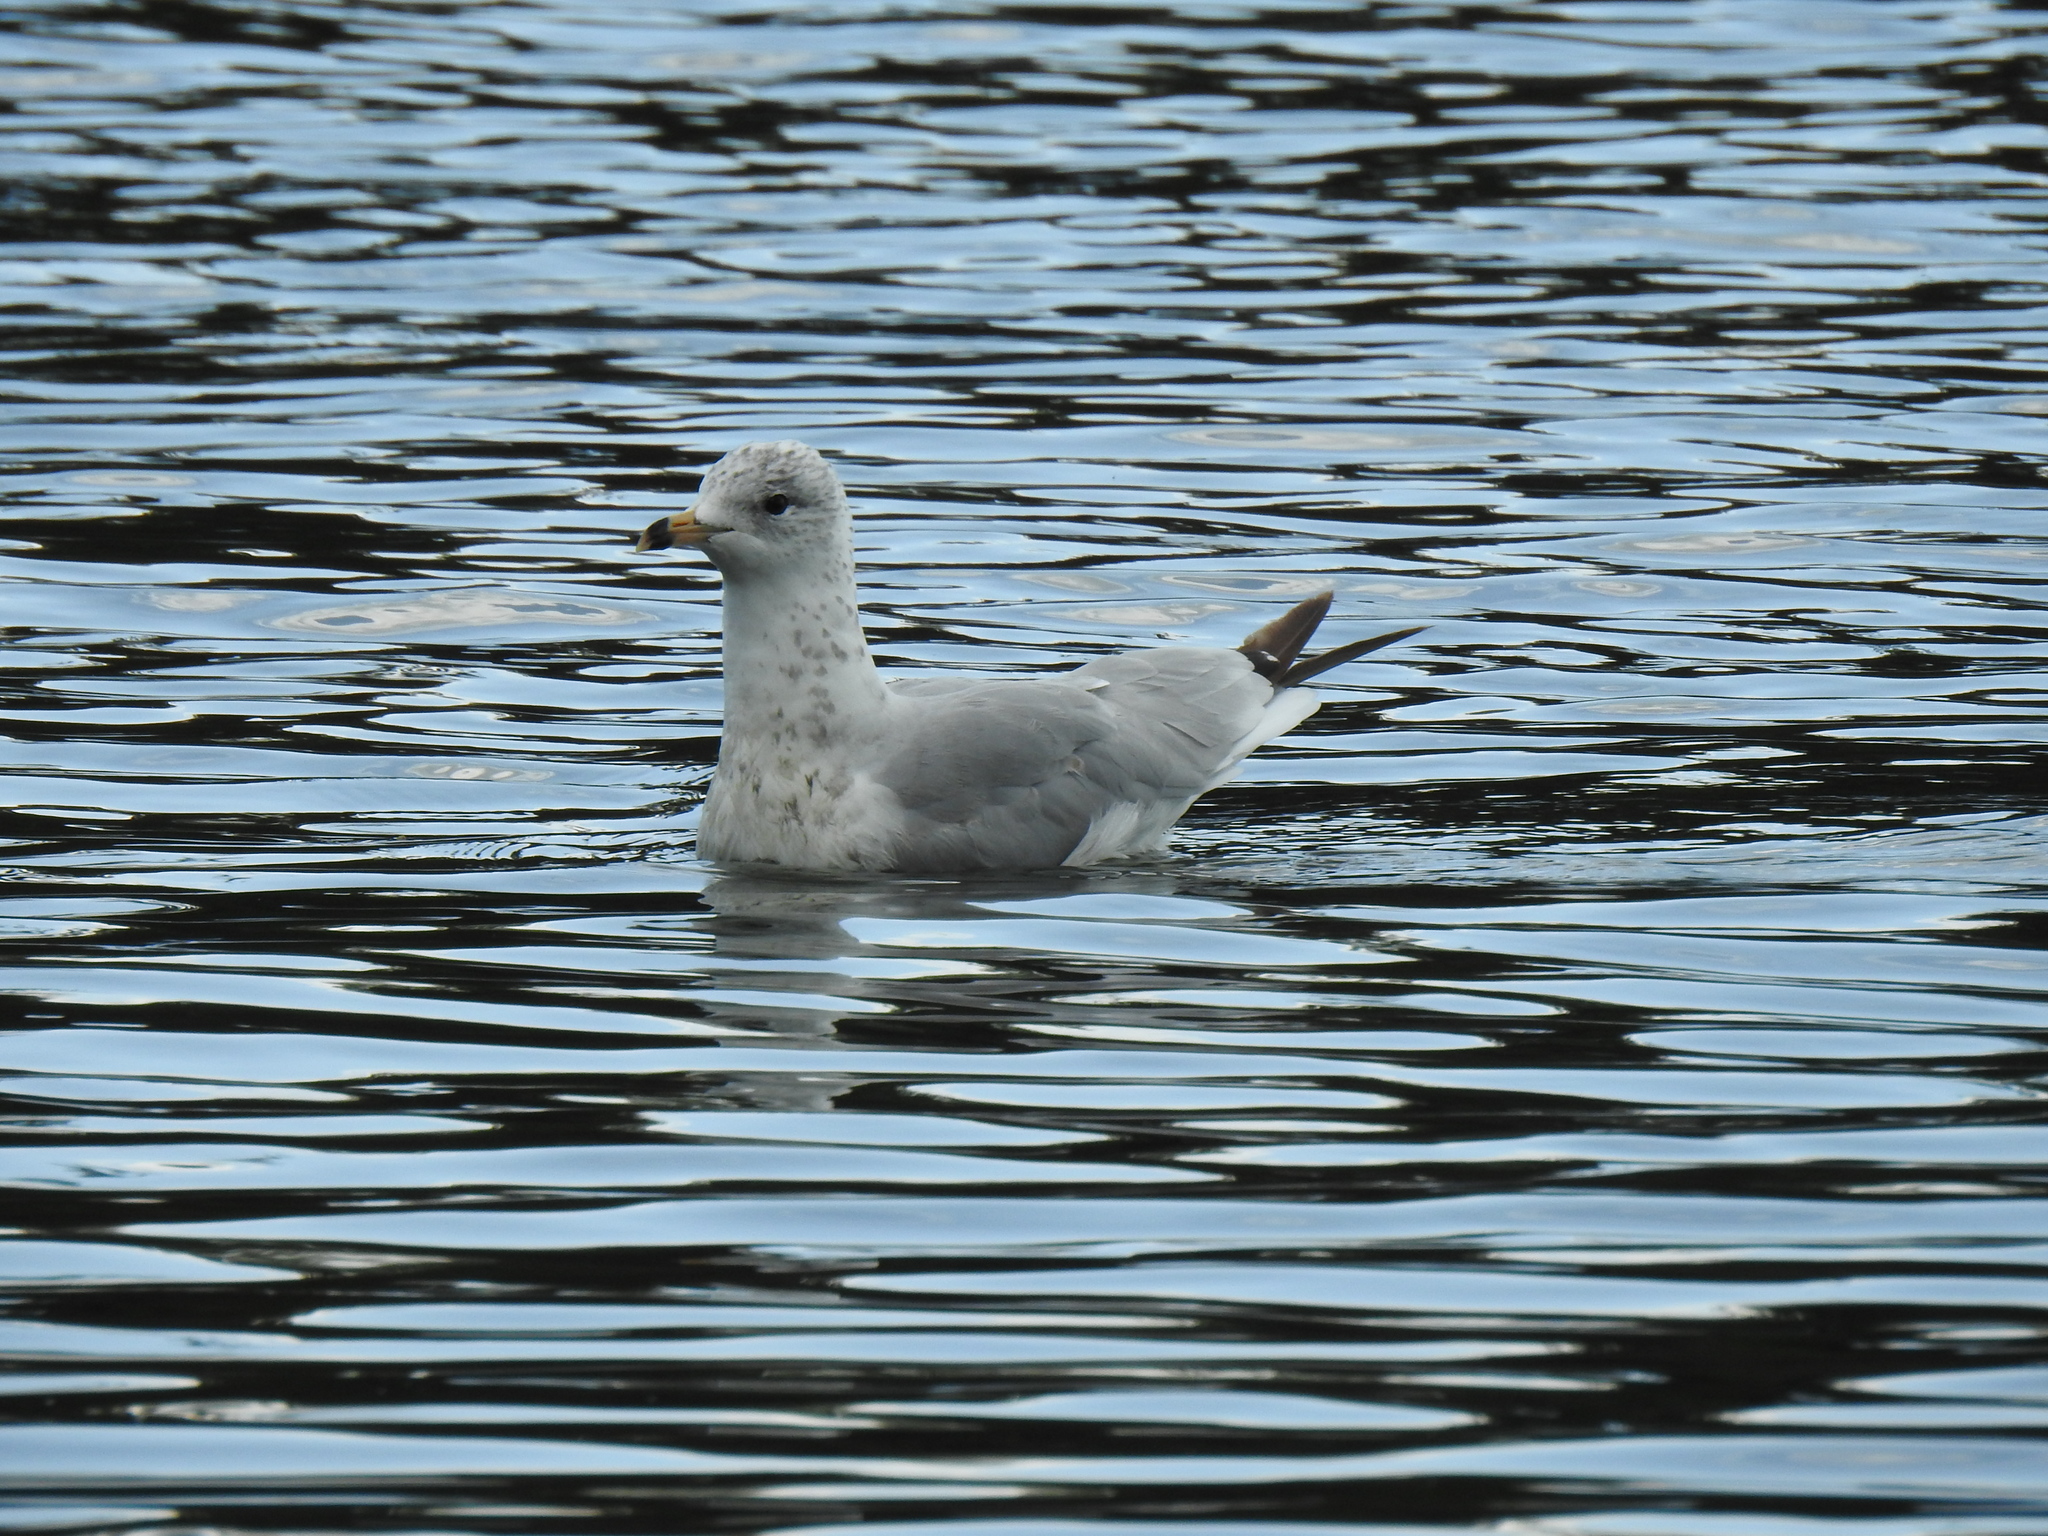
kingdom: Animalia
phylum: Chordata
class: Aves
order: Charadriiformes
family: Laridae
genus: Larus
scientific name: Larus delawarensis
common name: Ring-billed gull
